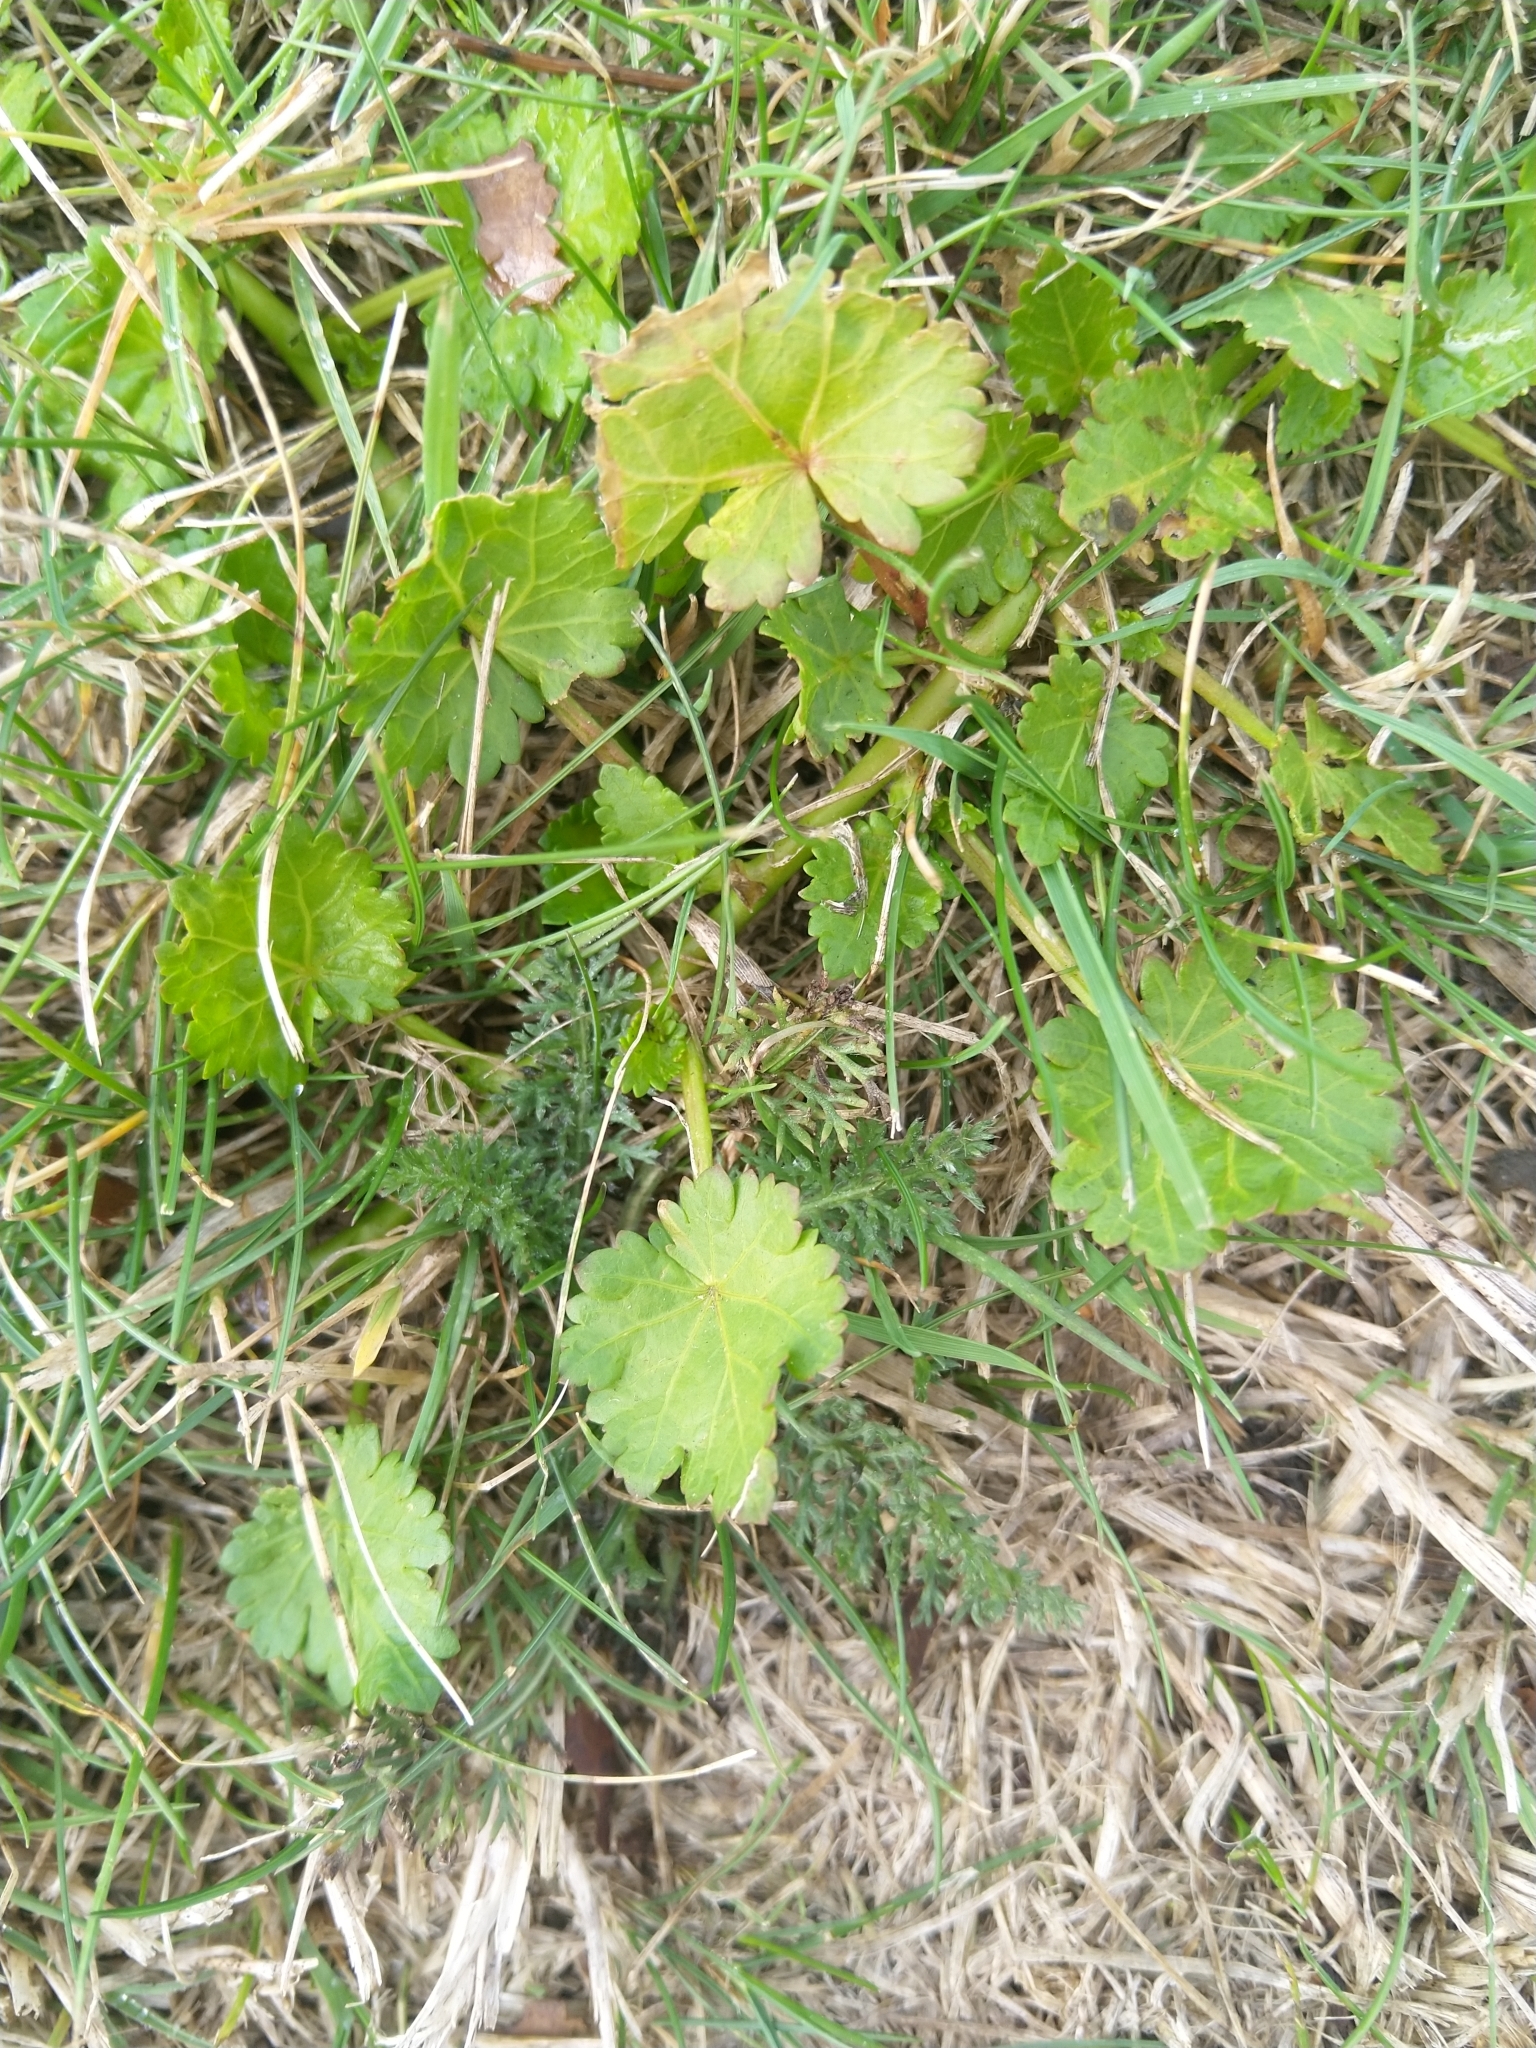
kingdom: Plantae
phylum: Tracheophyta
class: Magnoliopsida
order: Malvales
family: Malvaceae
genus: Modiola
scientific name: Modiola caroliniana
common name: Carolina bristlemallow
